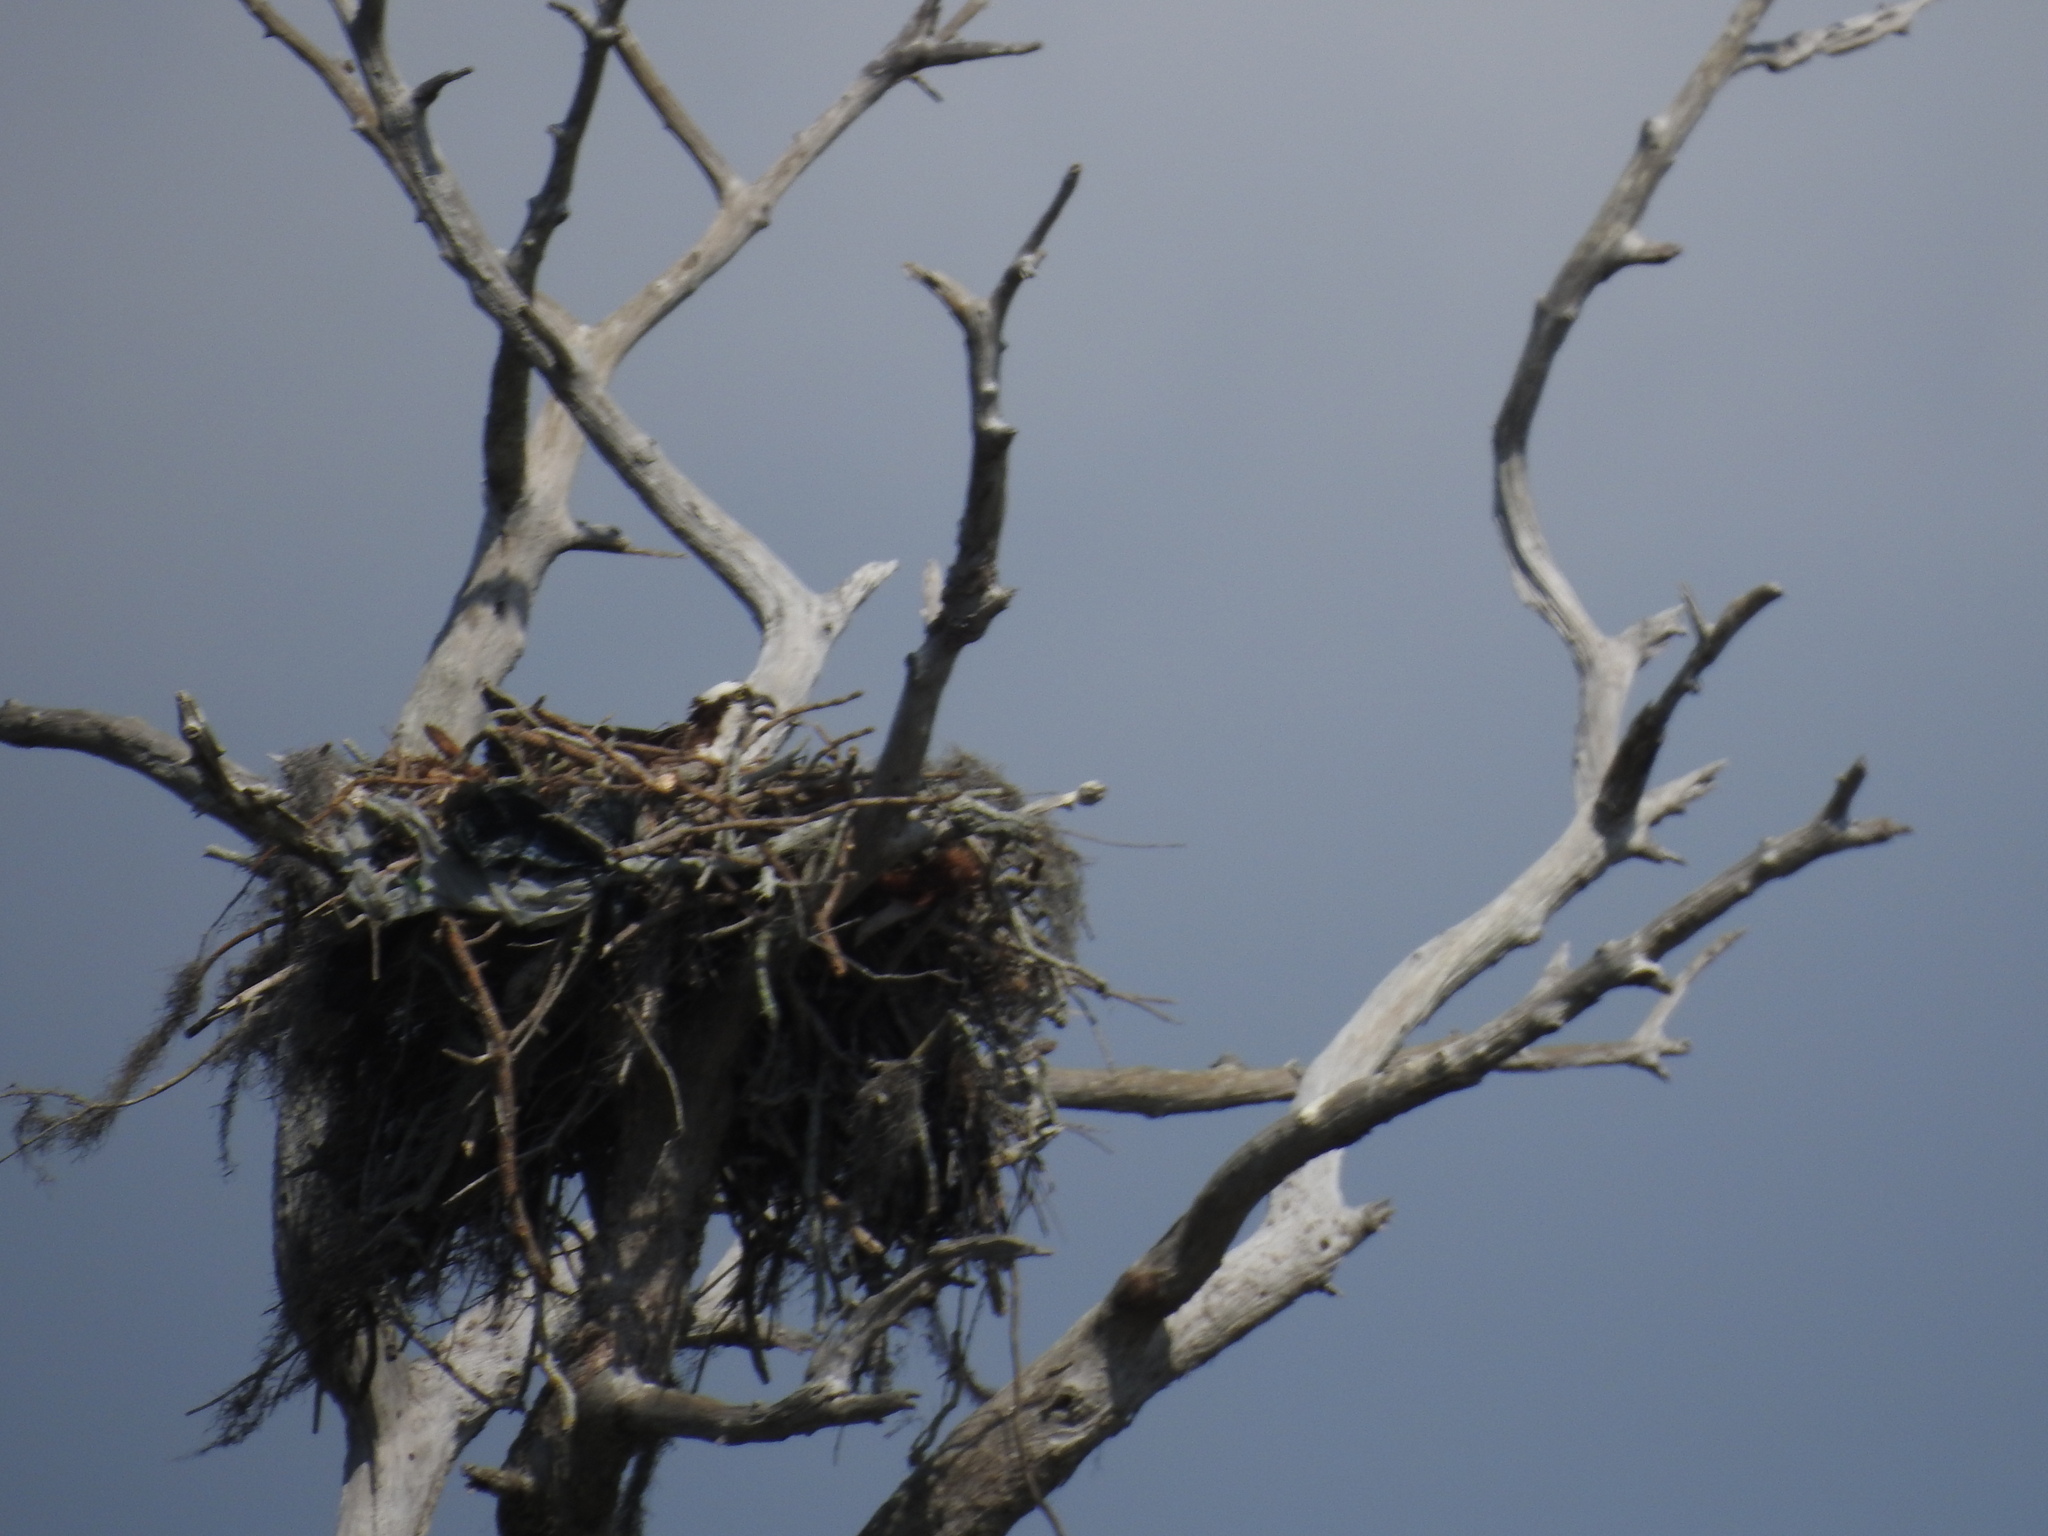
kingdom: Animalia
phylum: Chordata
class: Aves
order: Accipitriformes
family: Pandionidae
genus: Pandion
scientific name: Pandion haliaetus
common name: Osprey
